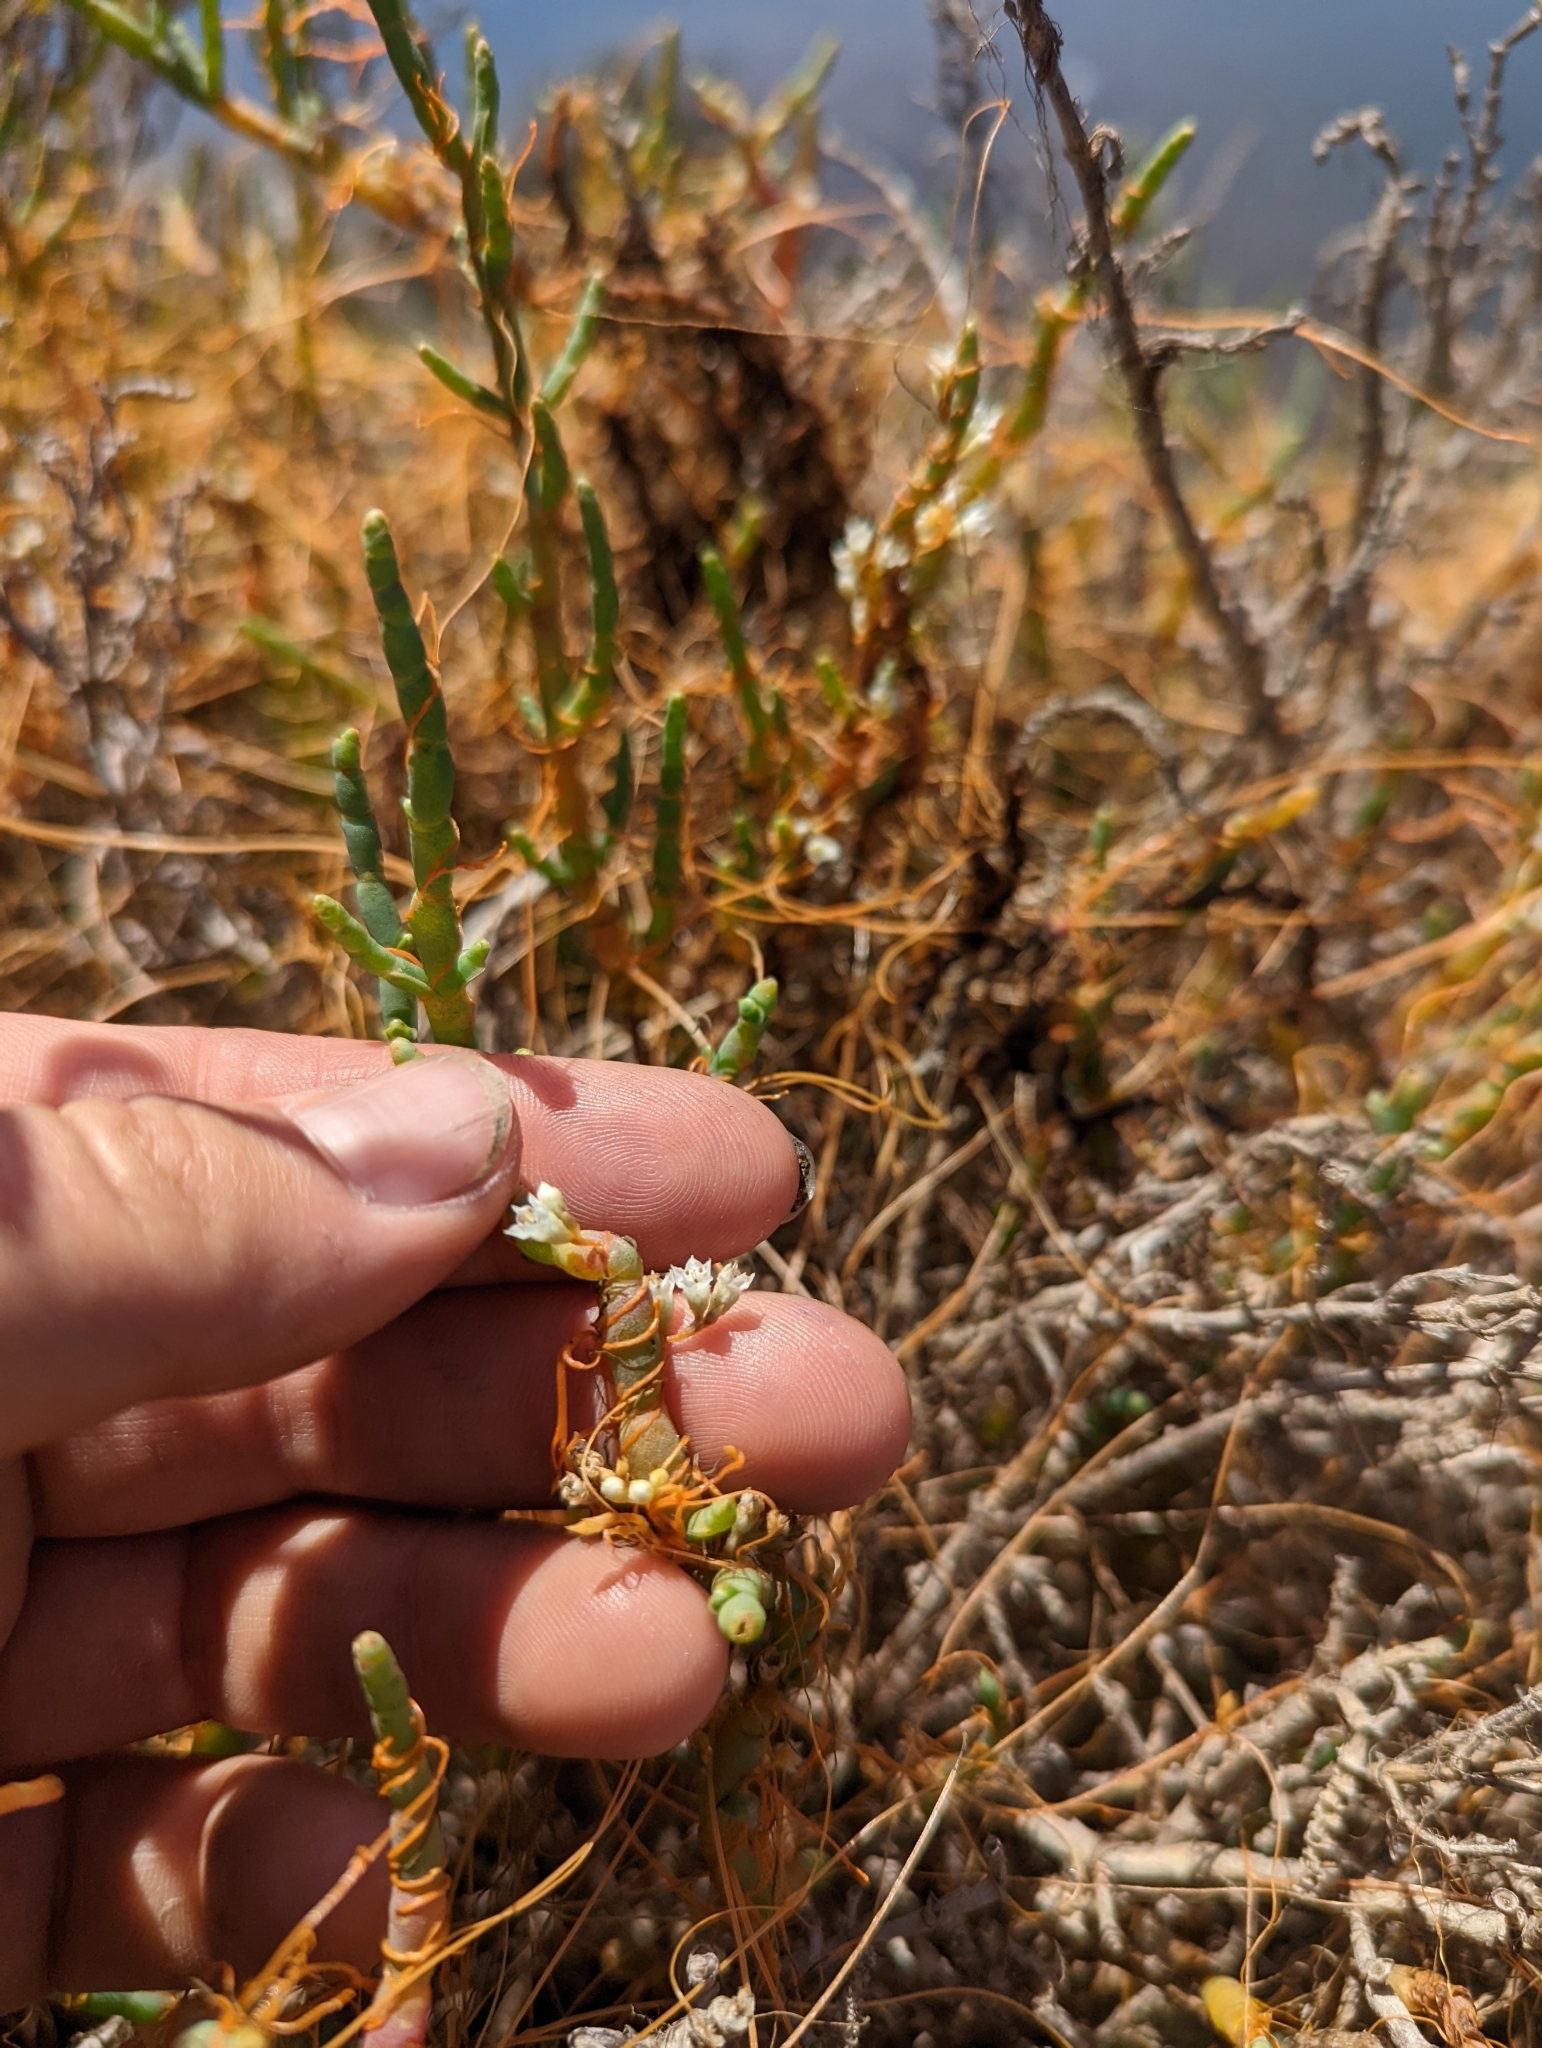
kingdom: Plantae
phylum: Tracheophyta
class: Magnoliopsida
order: Solanales
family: Convolvulaceae
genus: Cuscuta
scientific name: Cuscuta pacifica
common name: Large saltmarsh dodder
